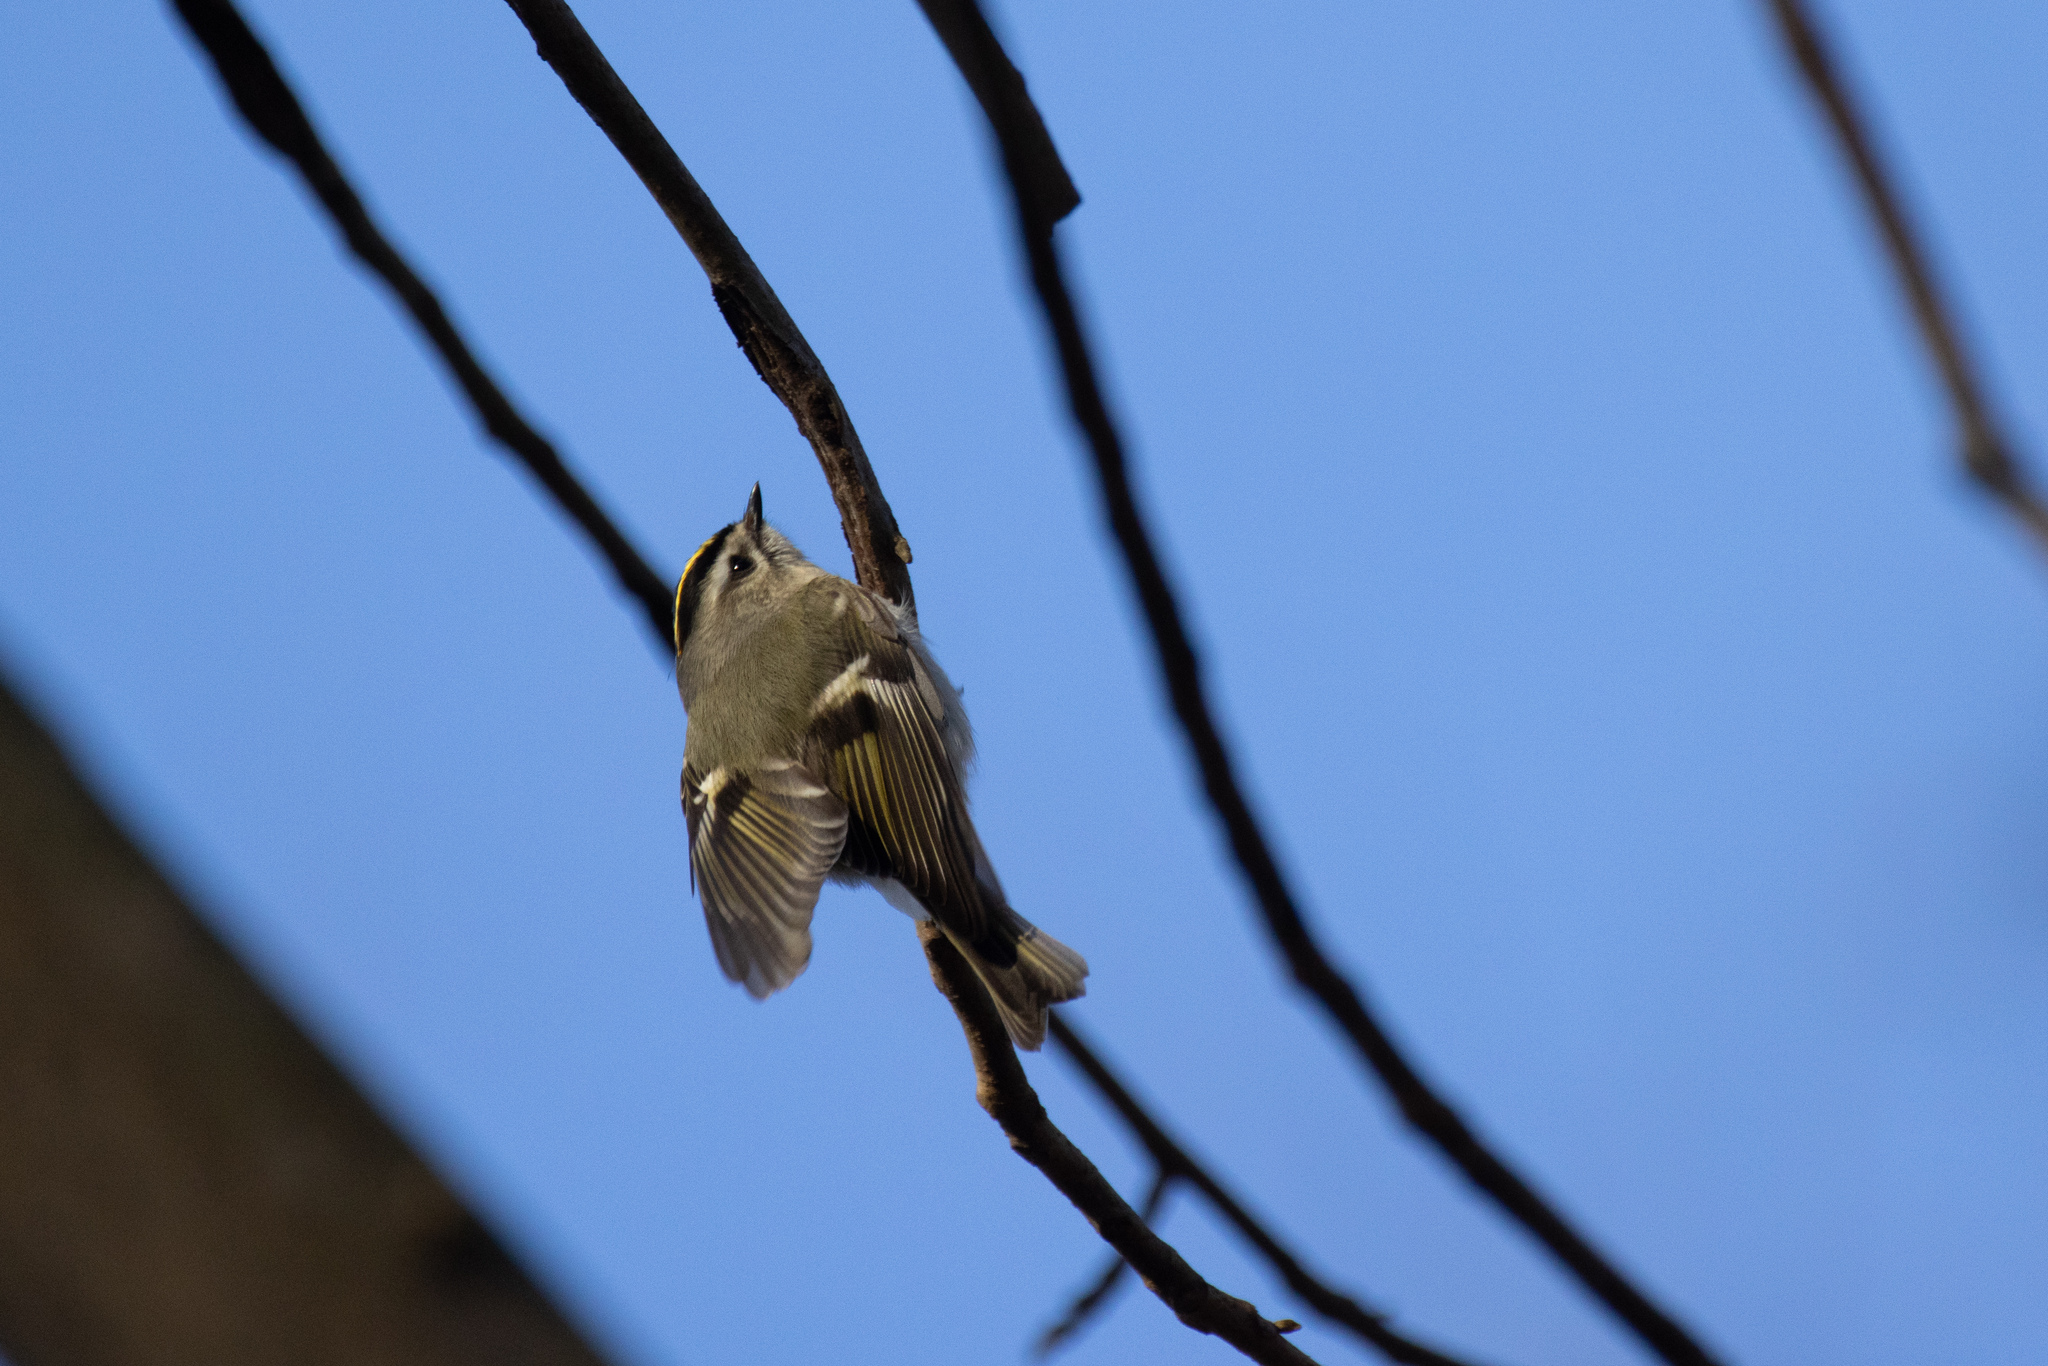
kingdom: Animalia
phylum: Chordata
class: Aves
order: Passeriformes
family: Regulidae
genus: Regulus
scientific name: Regulus satrapa
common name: Golden-crowned kinglet
